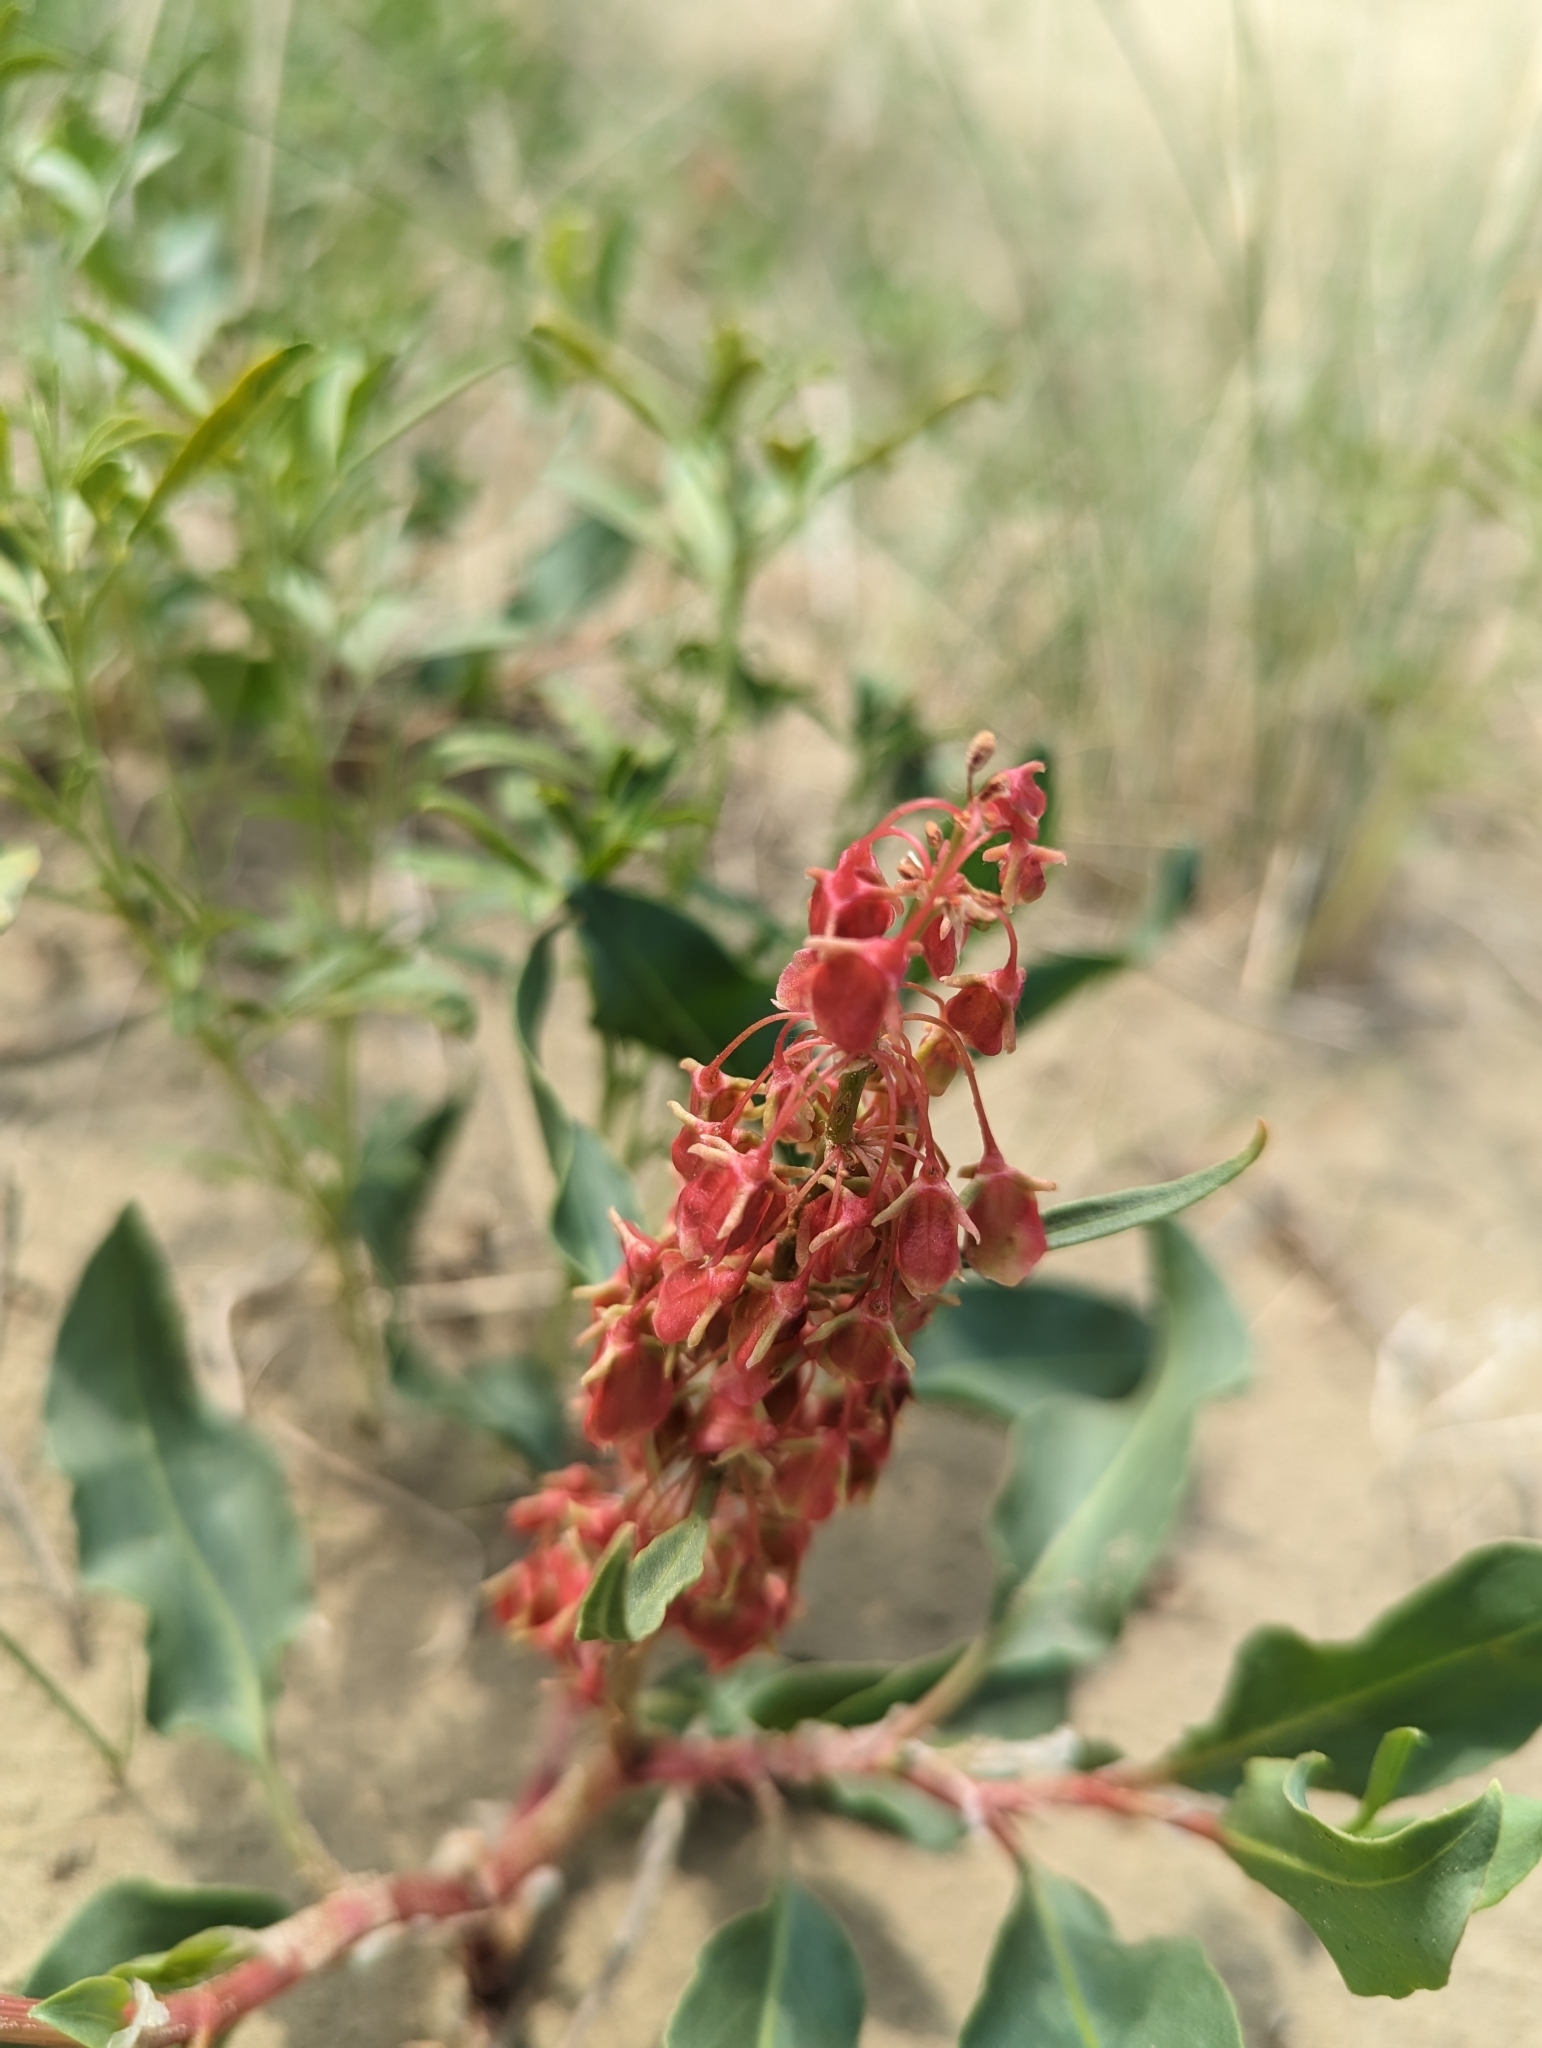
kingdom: Plantae
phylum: Tracheophyta
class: Magnoliopsida
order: Caryophyllales
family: Polygonaceae
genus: Rumex
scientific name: Rumex venosus
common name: Winged dock
